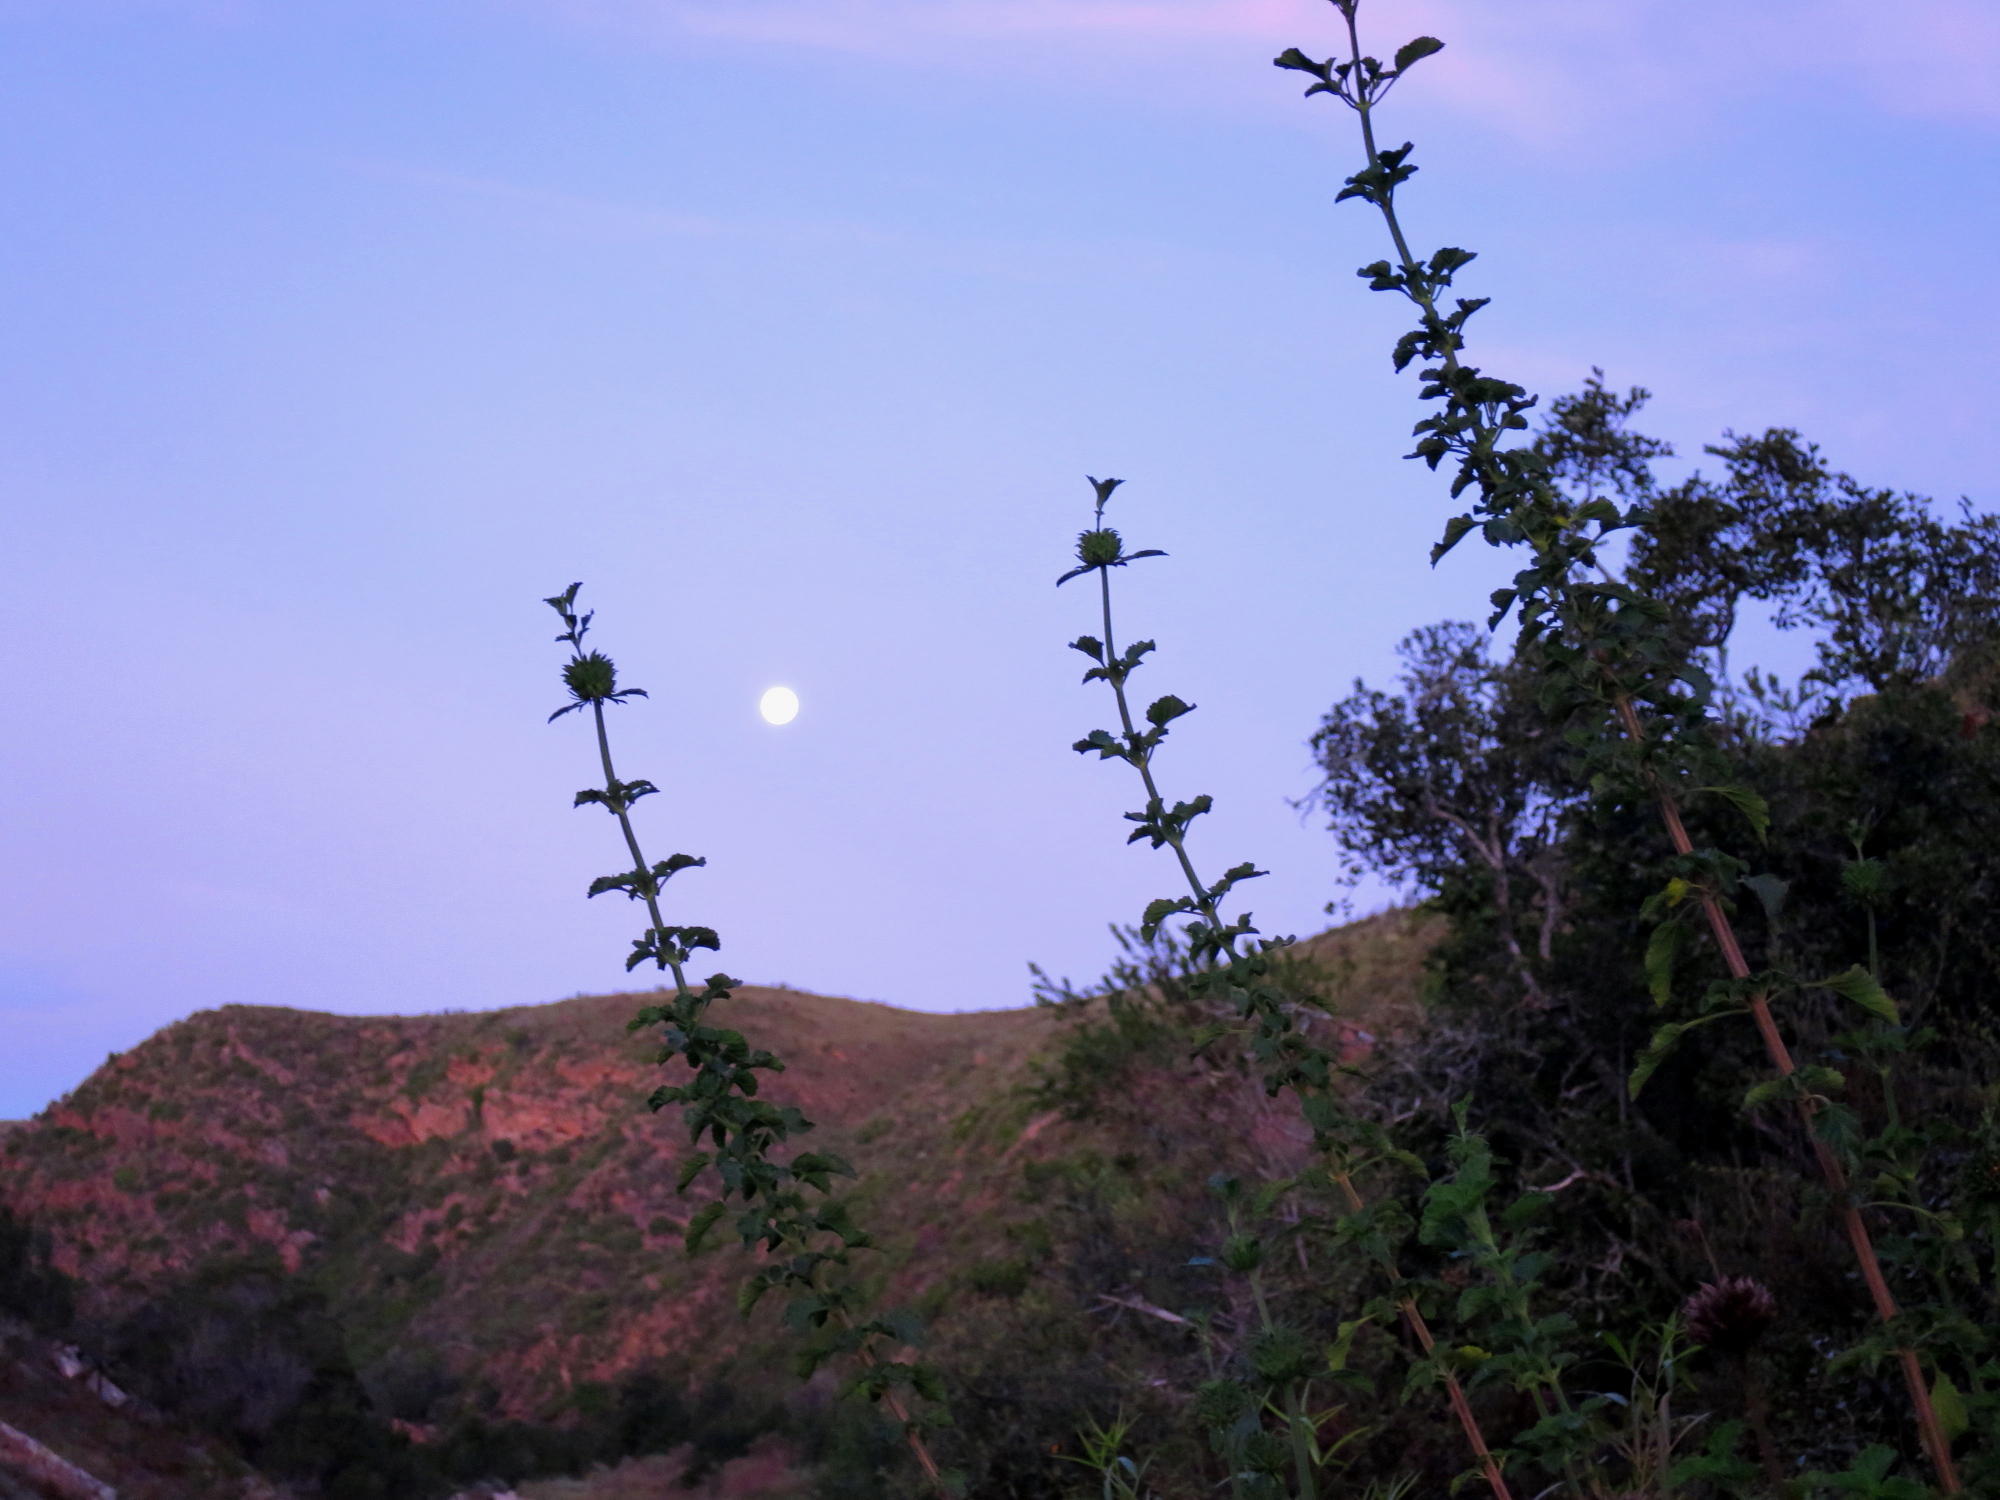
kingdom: Plantae
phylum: Tracheophyta
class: Magnoliopsida
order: Lamiales
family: Lamiaceae
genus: Leonotis
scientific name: Leonotis ocymifolia
